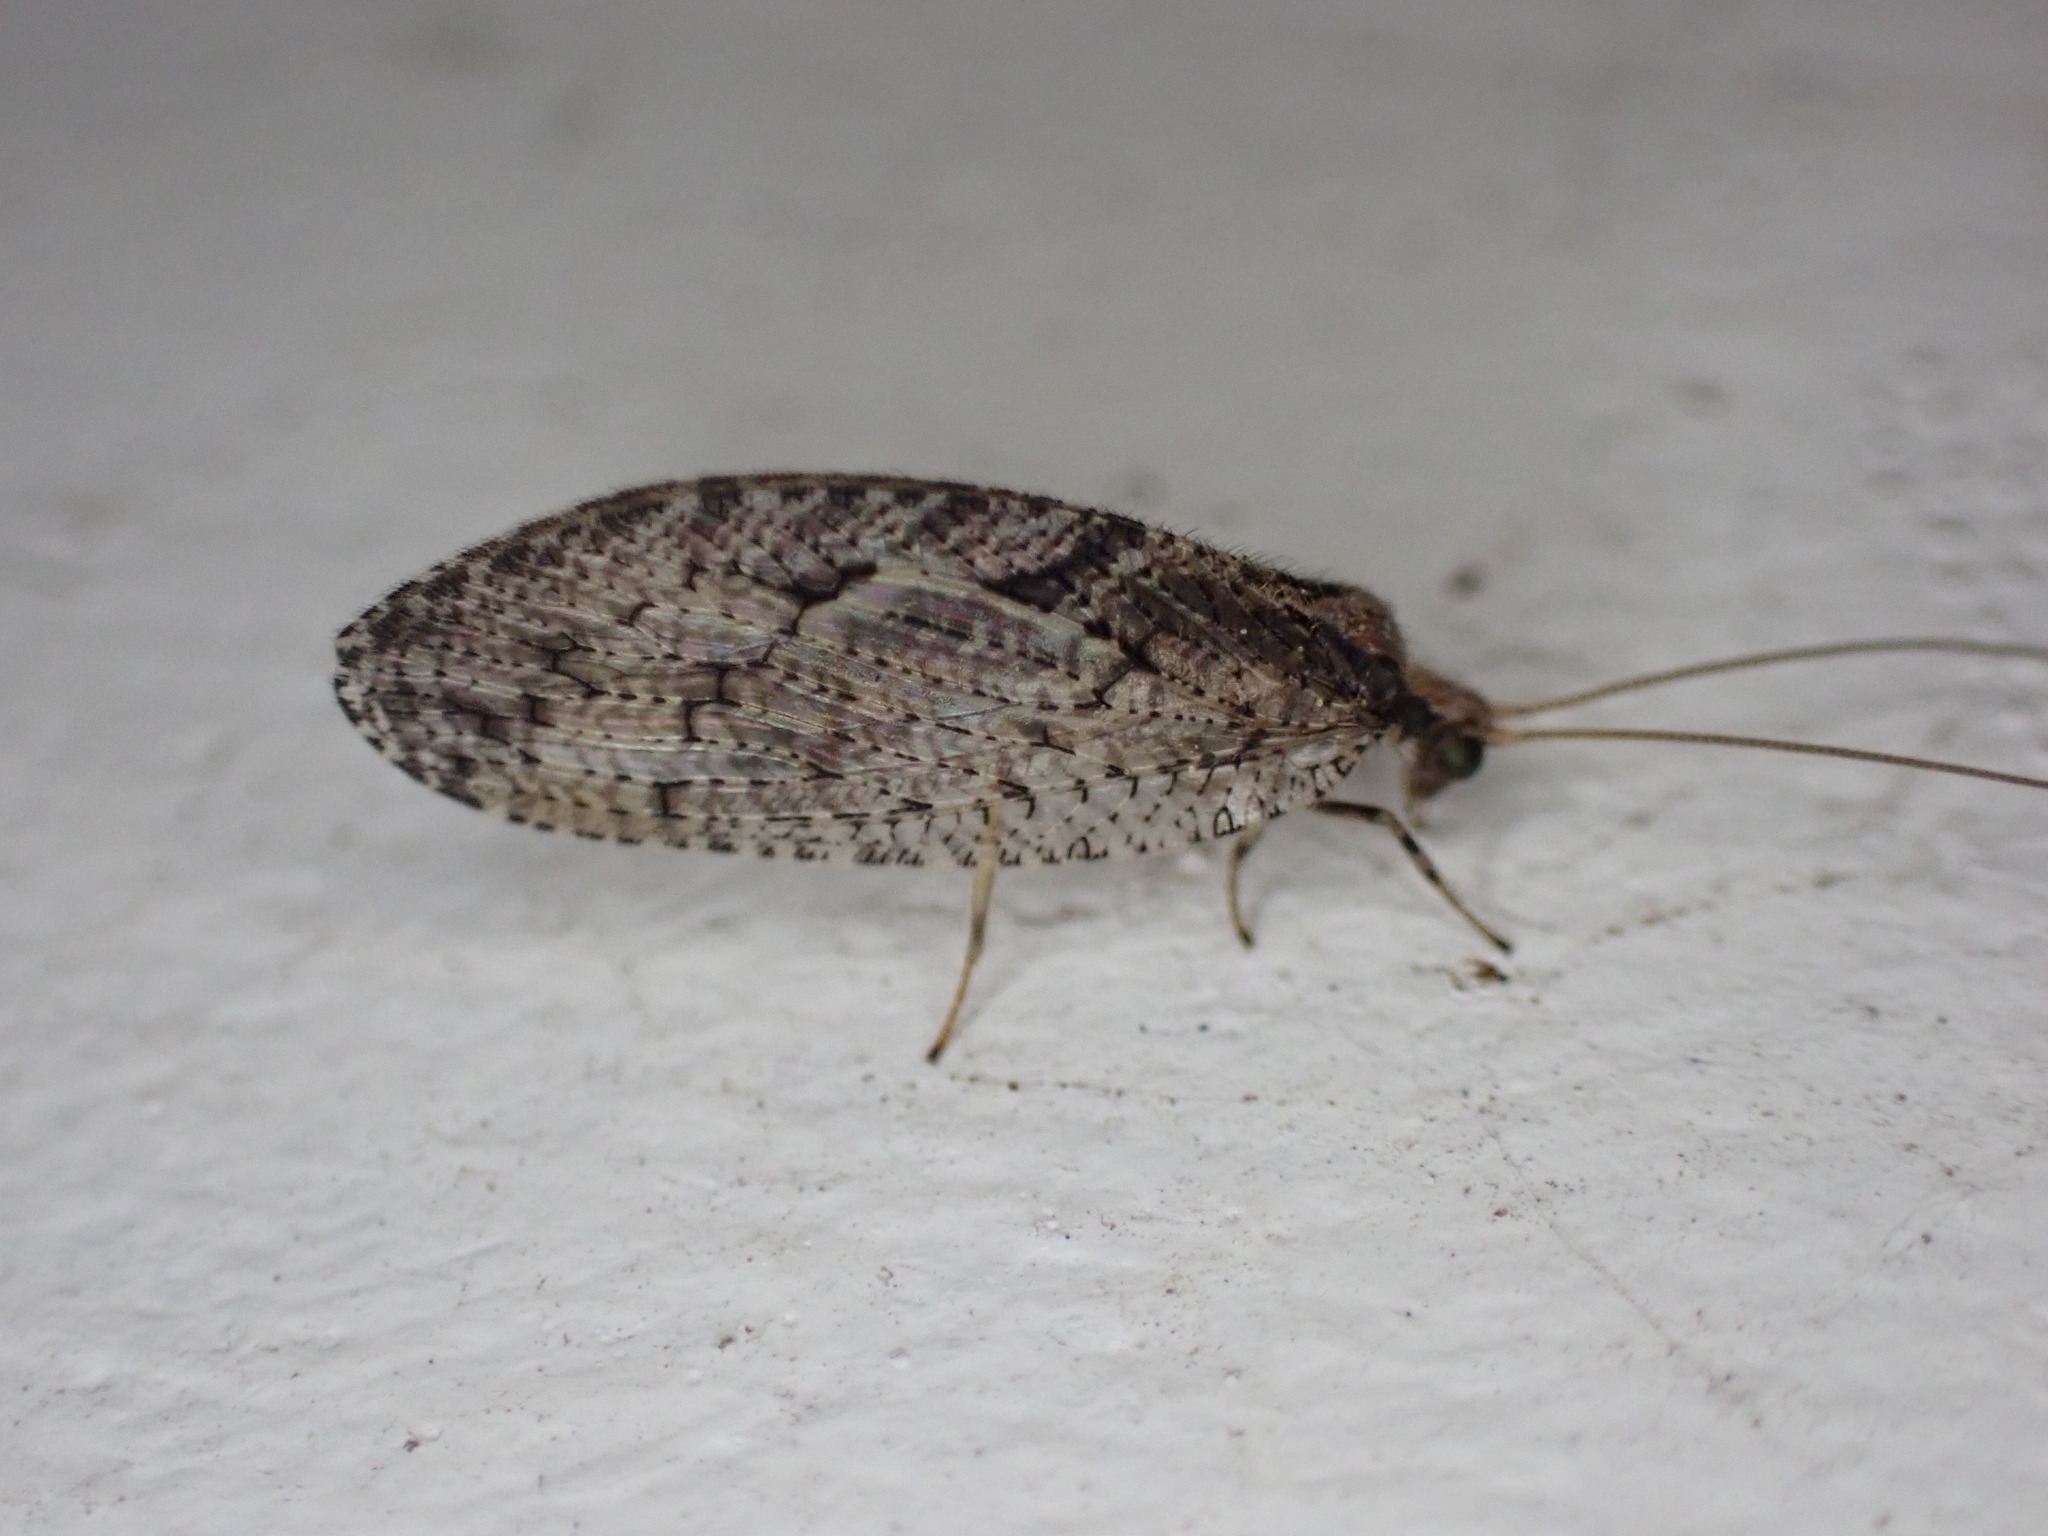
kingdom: Animalia
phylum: Arthropoda
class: Insecta
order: Neuroptera
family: Hemerobiidae
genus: Wesmaelius
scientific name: Wesmaelius subnebulosus
